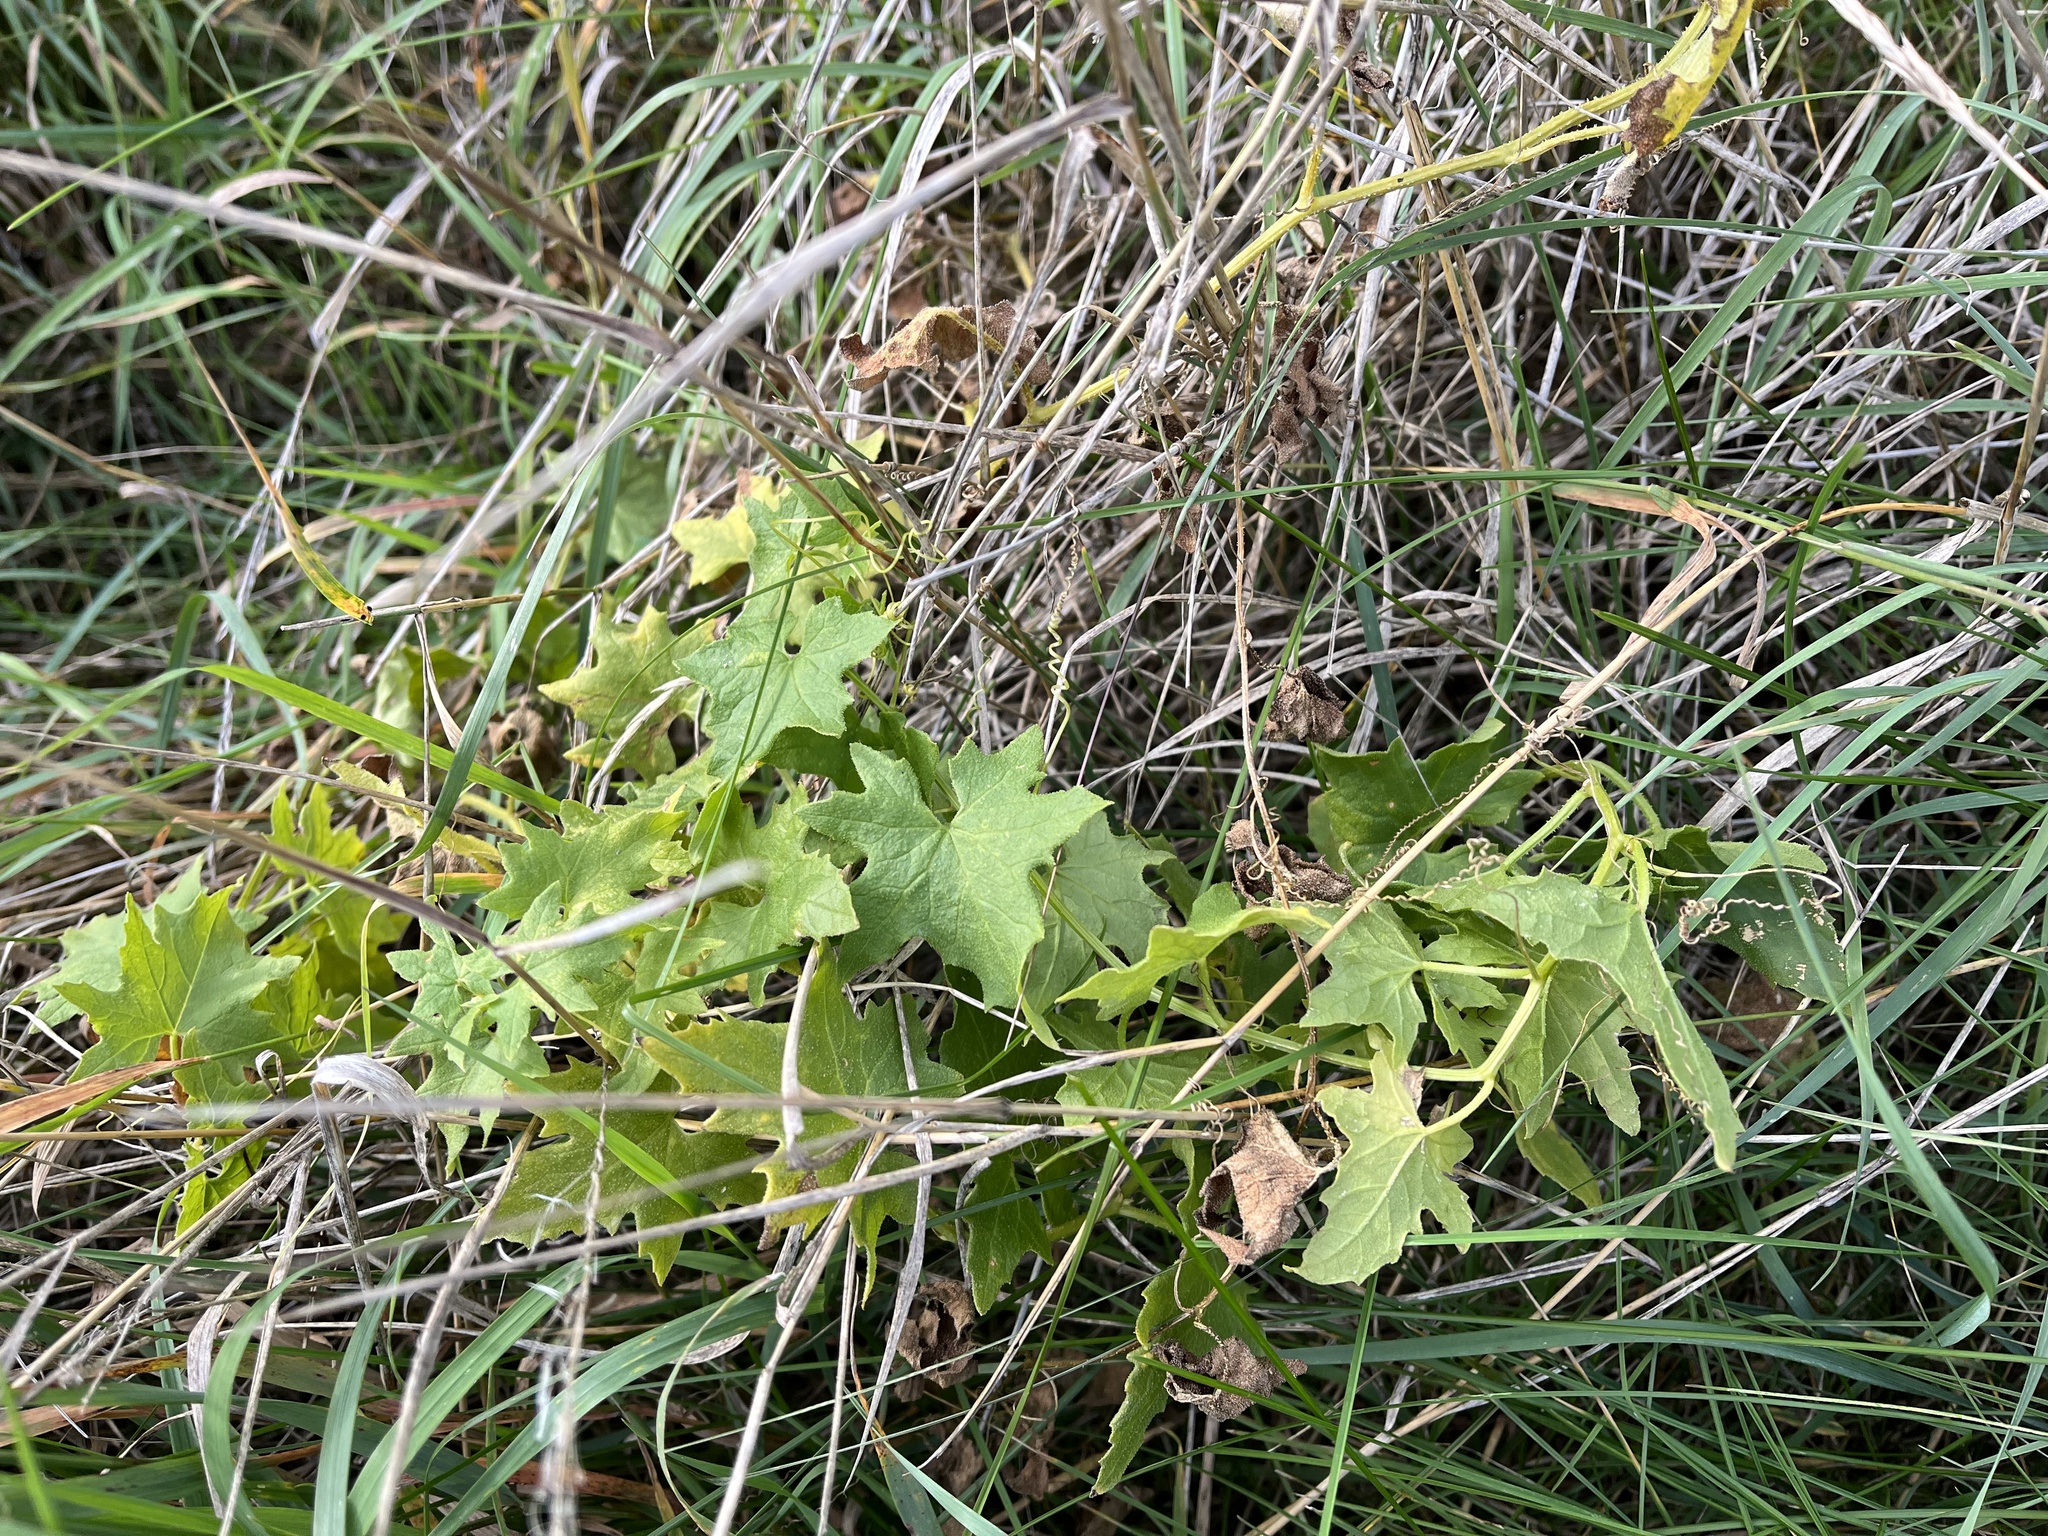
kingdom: Plantae
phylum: Tracheophyta
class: Magnoliopsida
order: Cucurbitales
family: Cucurbitaceae
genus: Bryonia
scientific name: Bryonia alba
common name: White bryony
